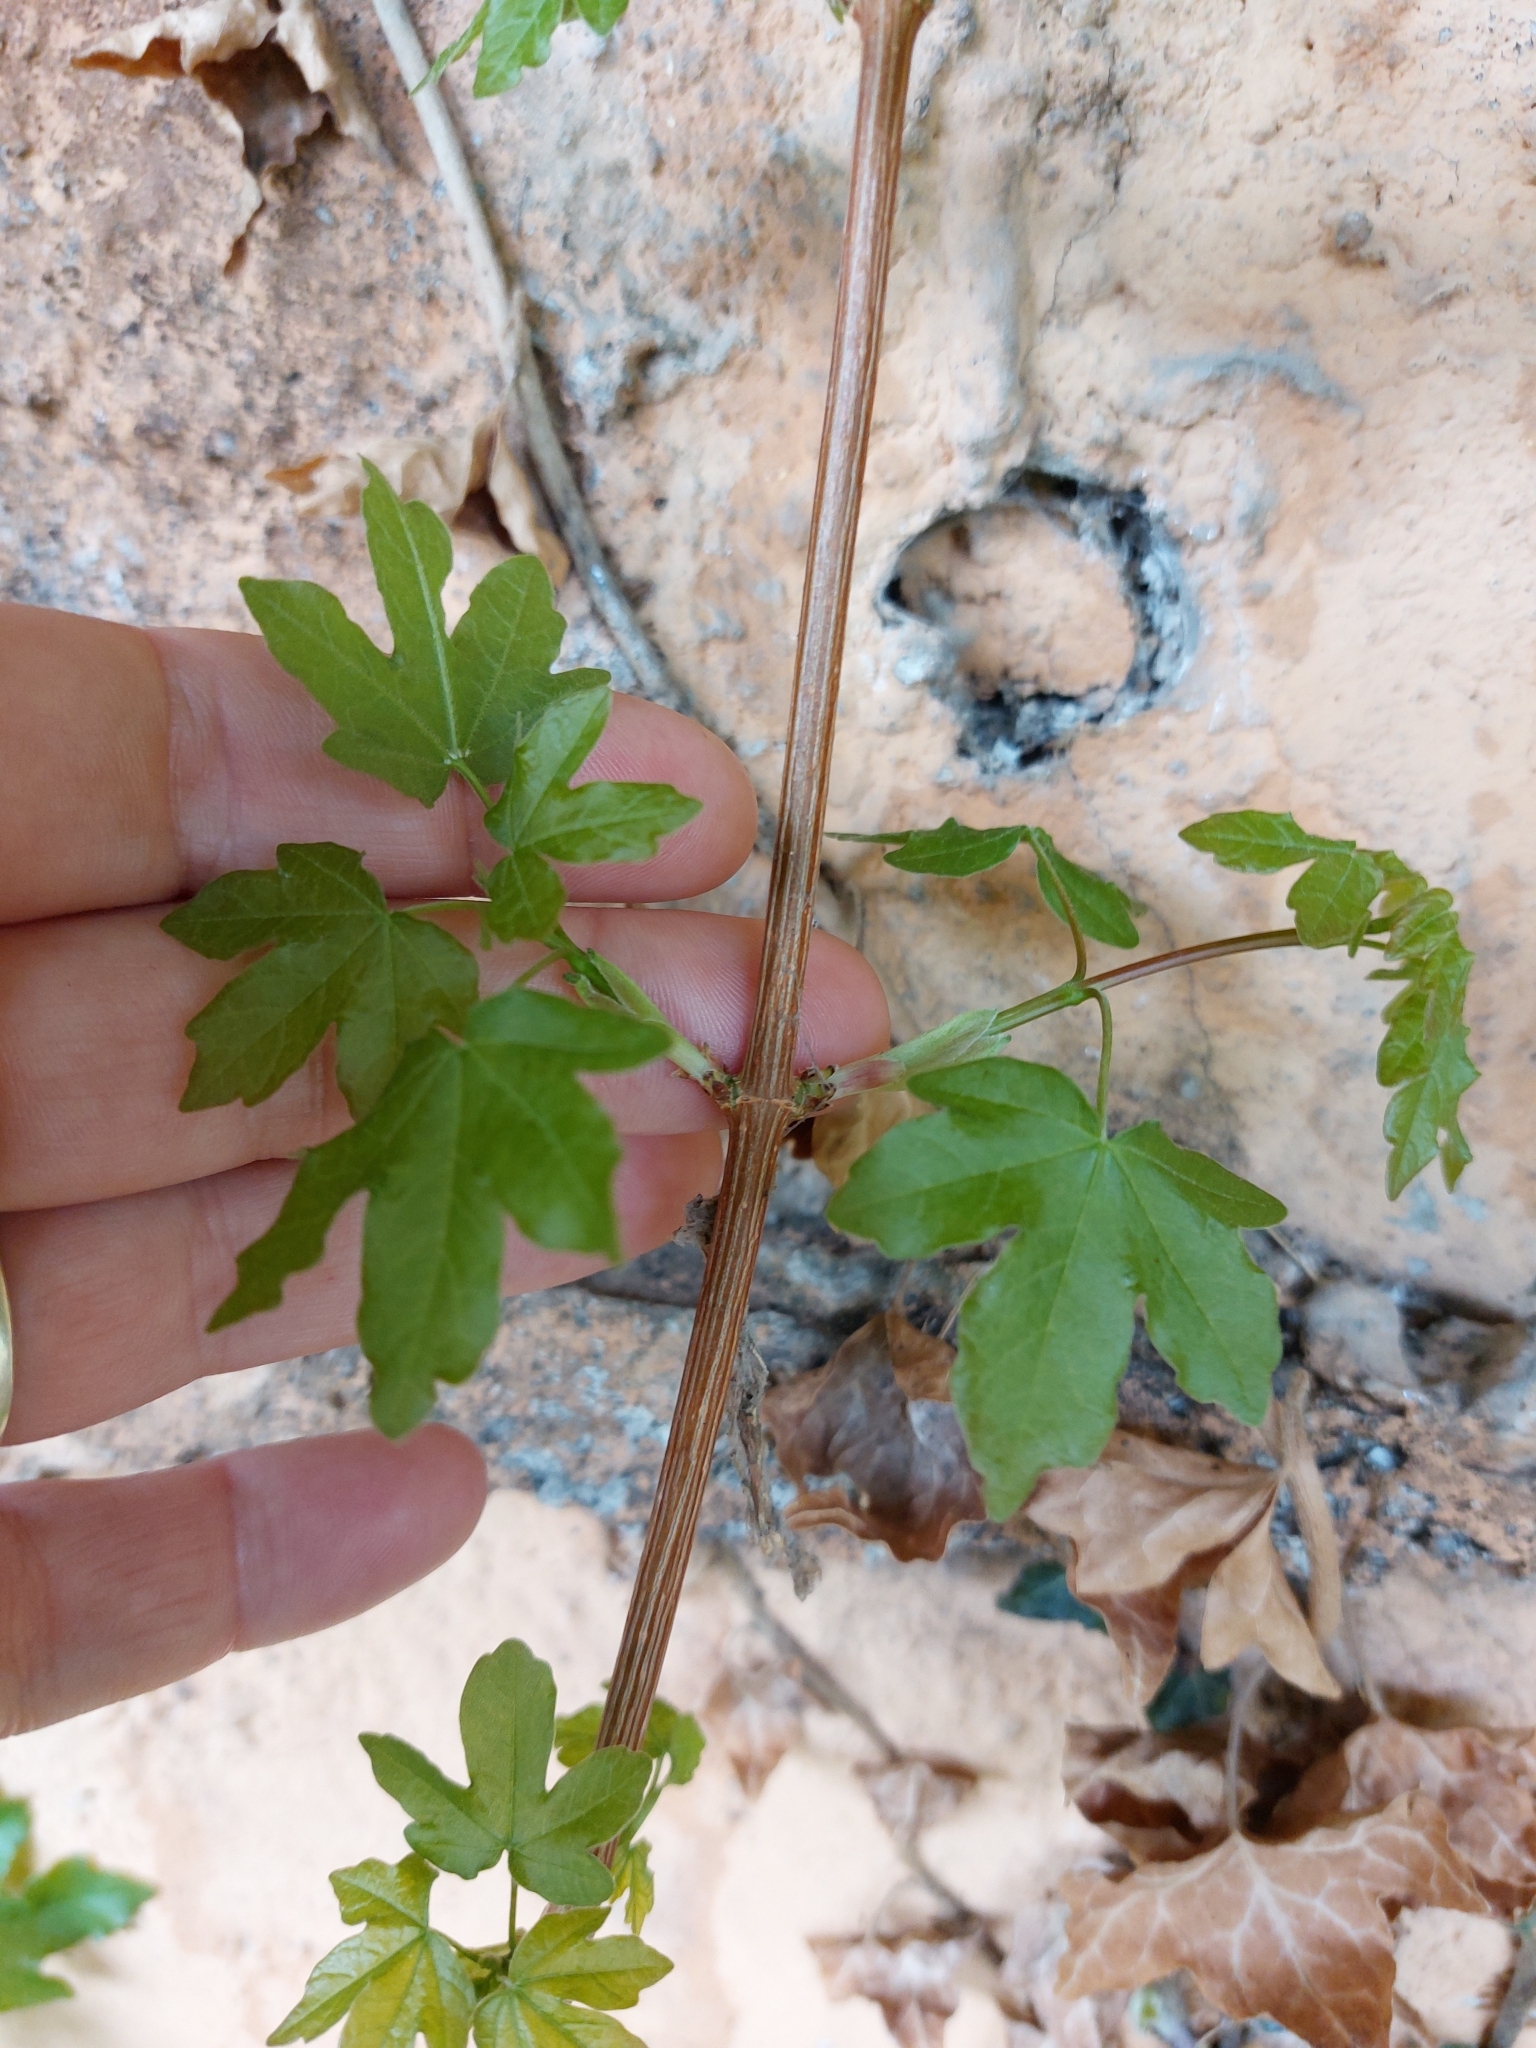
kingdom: Plantae
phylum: Tracheophyta
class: Magnoliopsida
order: Sapindales
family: Sapindaceae
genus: Acer
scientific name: Acer campestre
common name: Field maple
